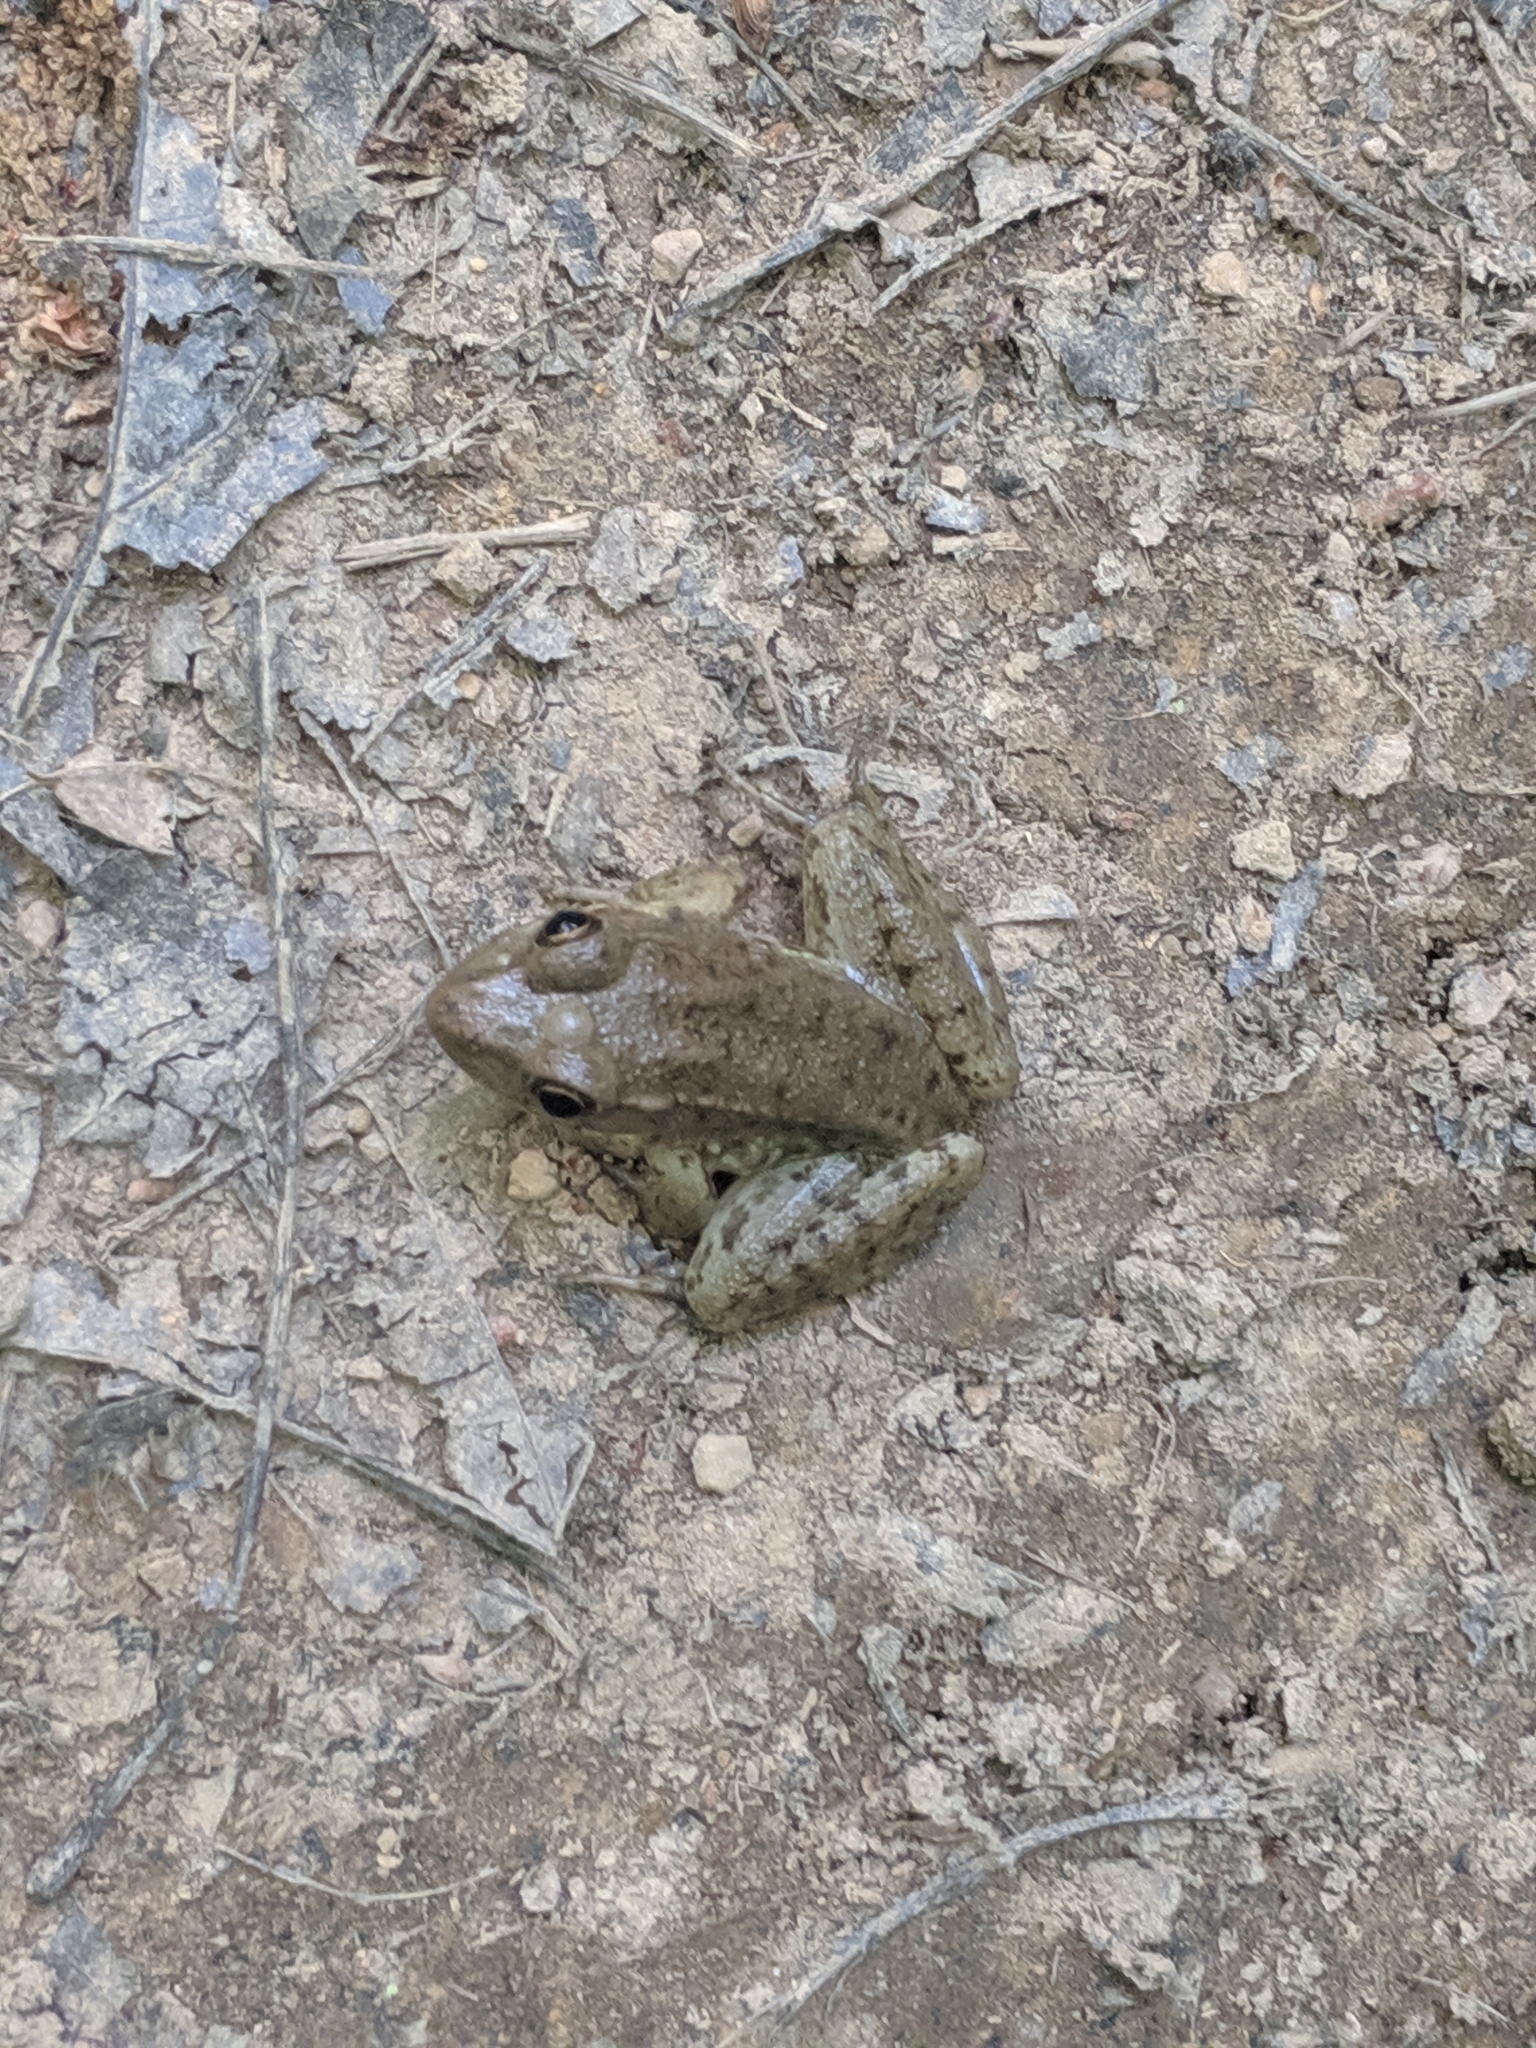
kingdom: Animalia
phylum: Chordata
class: Amphibia
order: Anura
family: Ranidae
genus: Lithobates
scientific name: Lithobates clamitans
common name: Green frog
